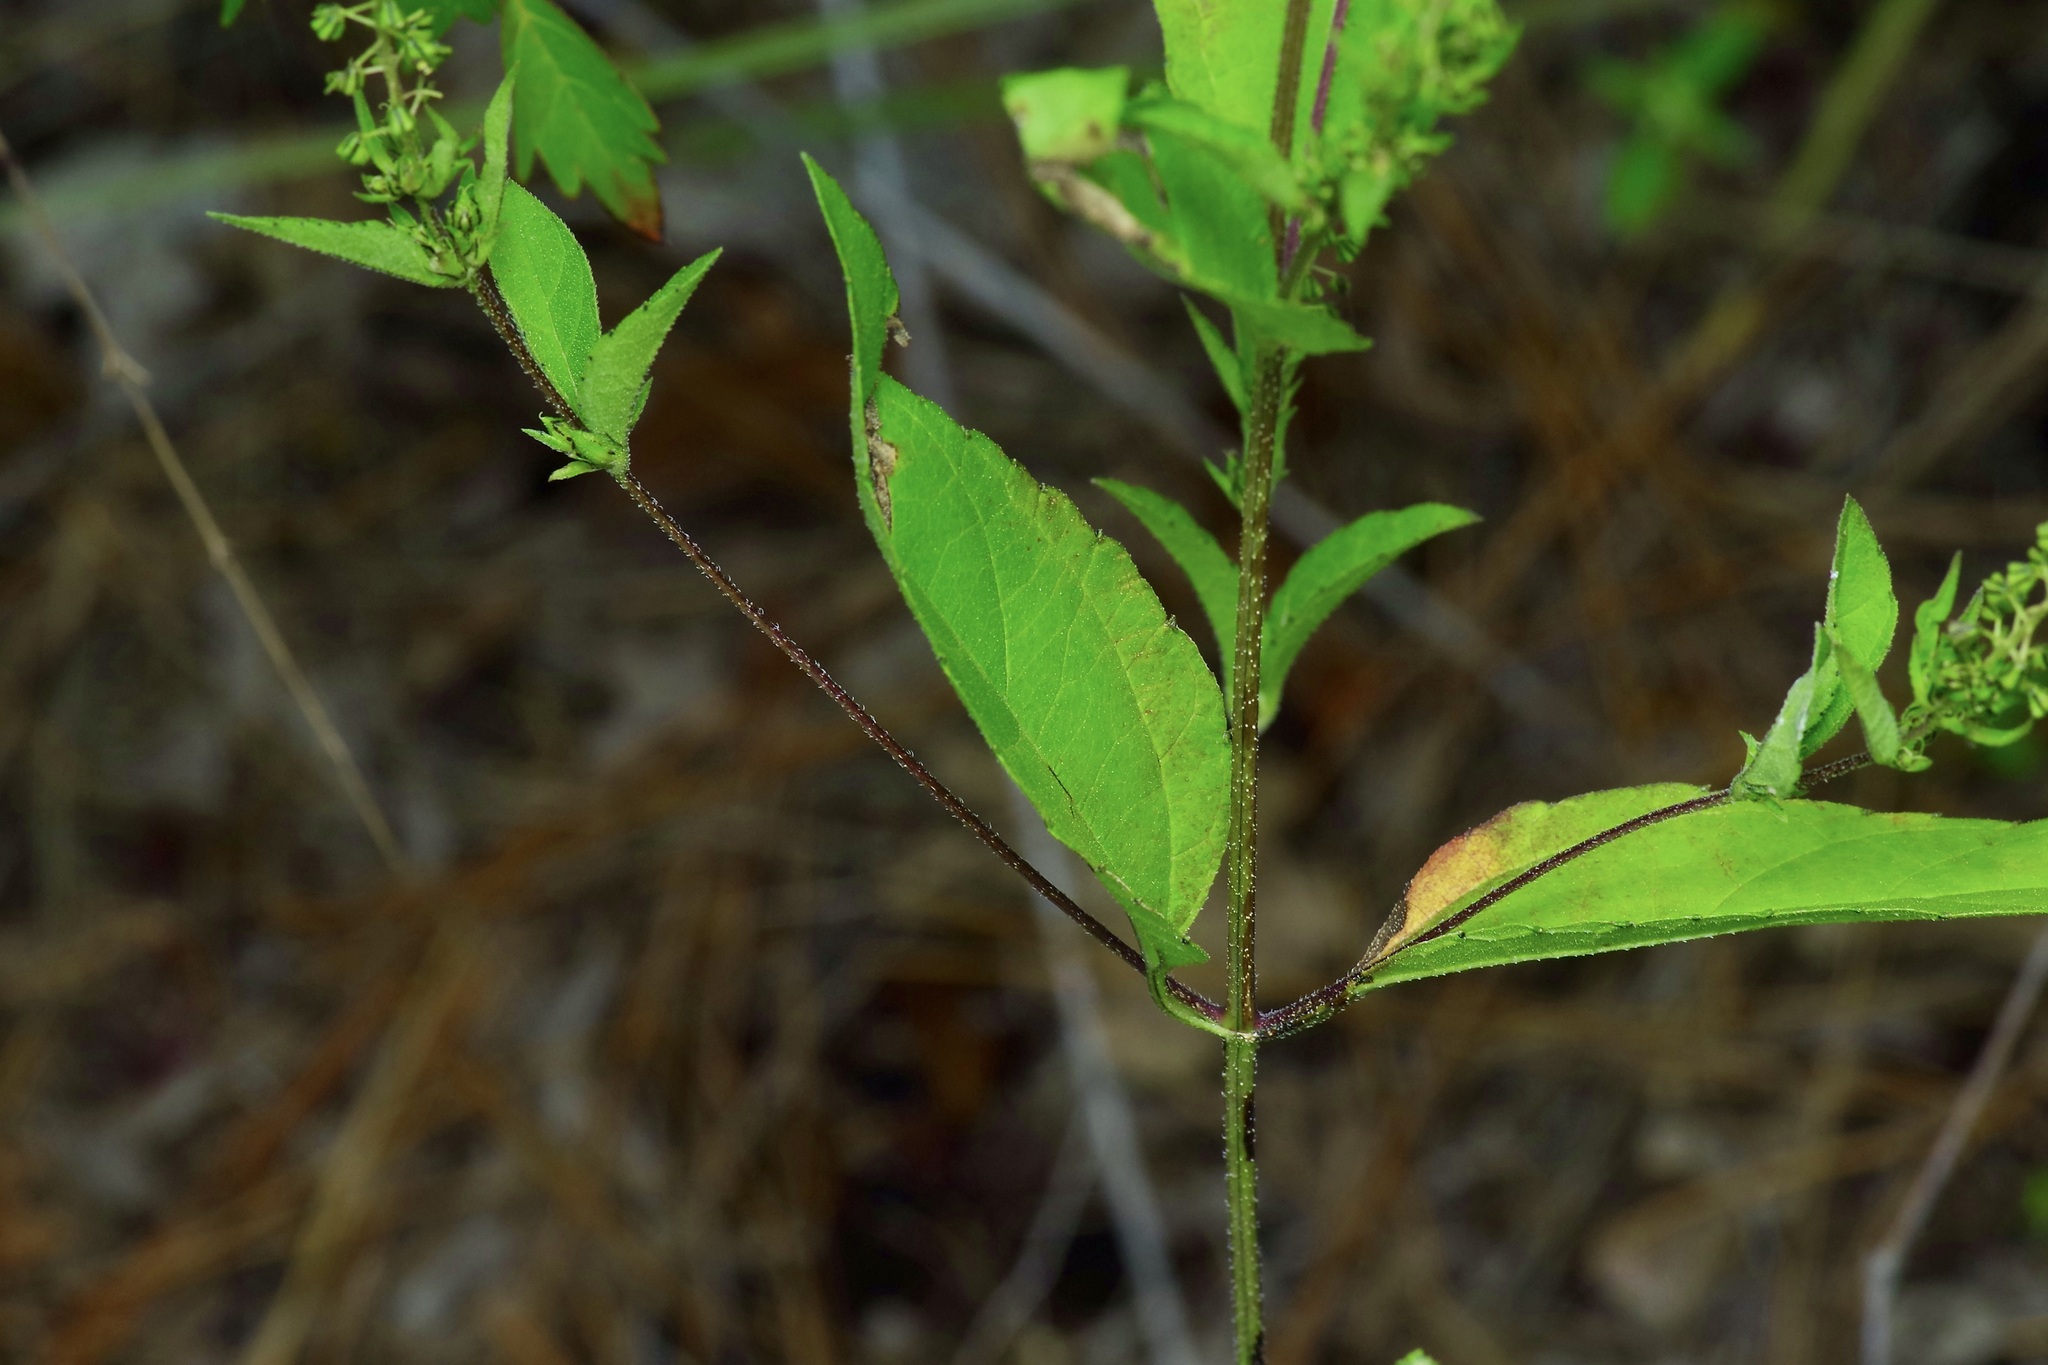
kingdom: Plantae
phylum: Tracheophyta
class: Magnoliopsida
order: Asterales
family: Asteraceae
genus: Ambrosia
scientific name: Ambrosia trifida
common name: Giant ragweed
